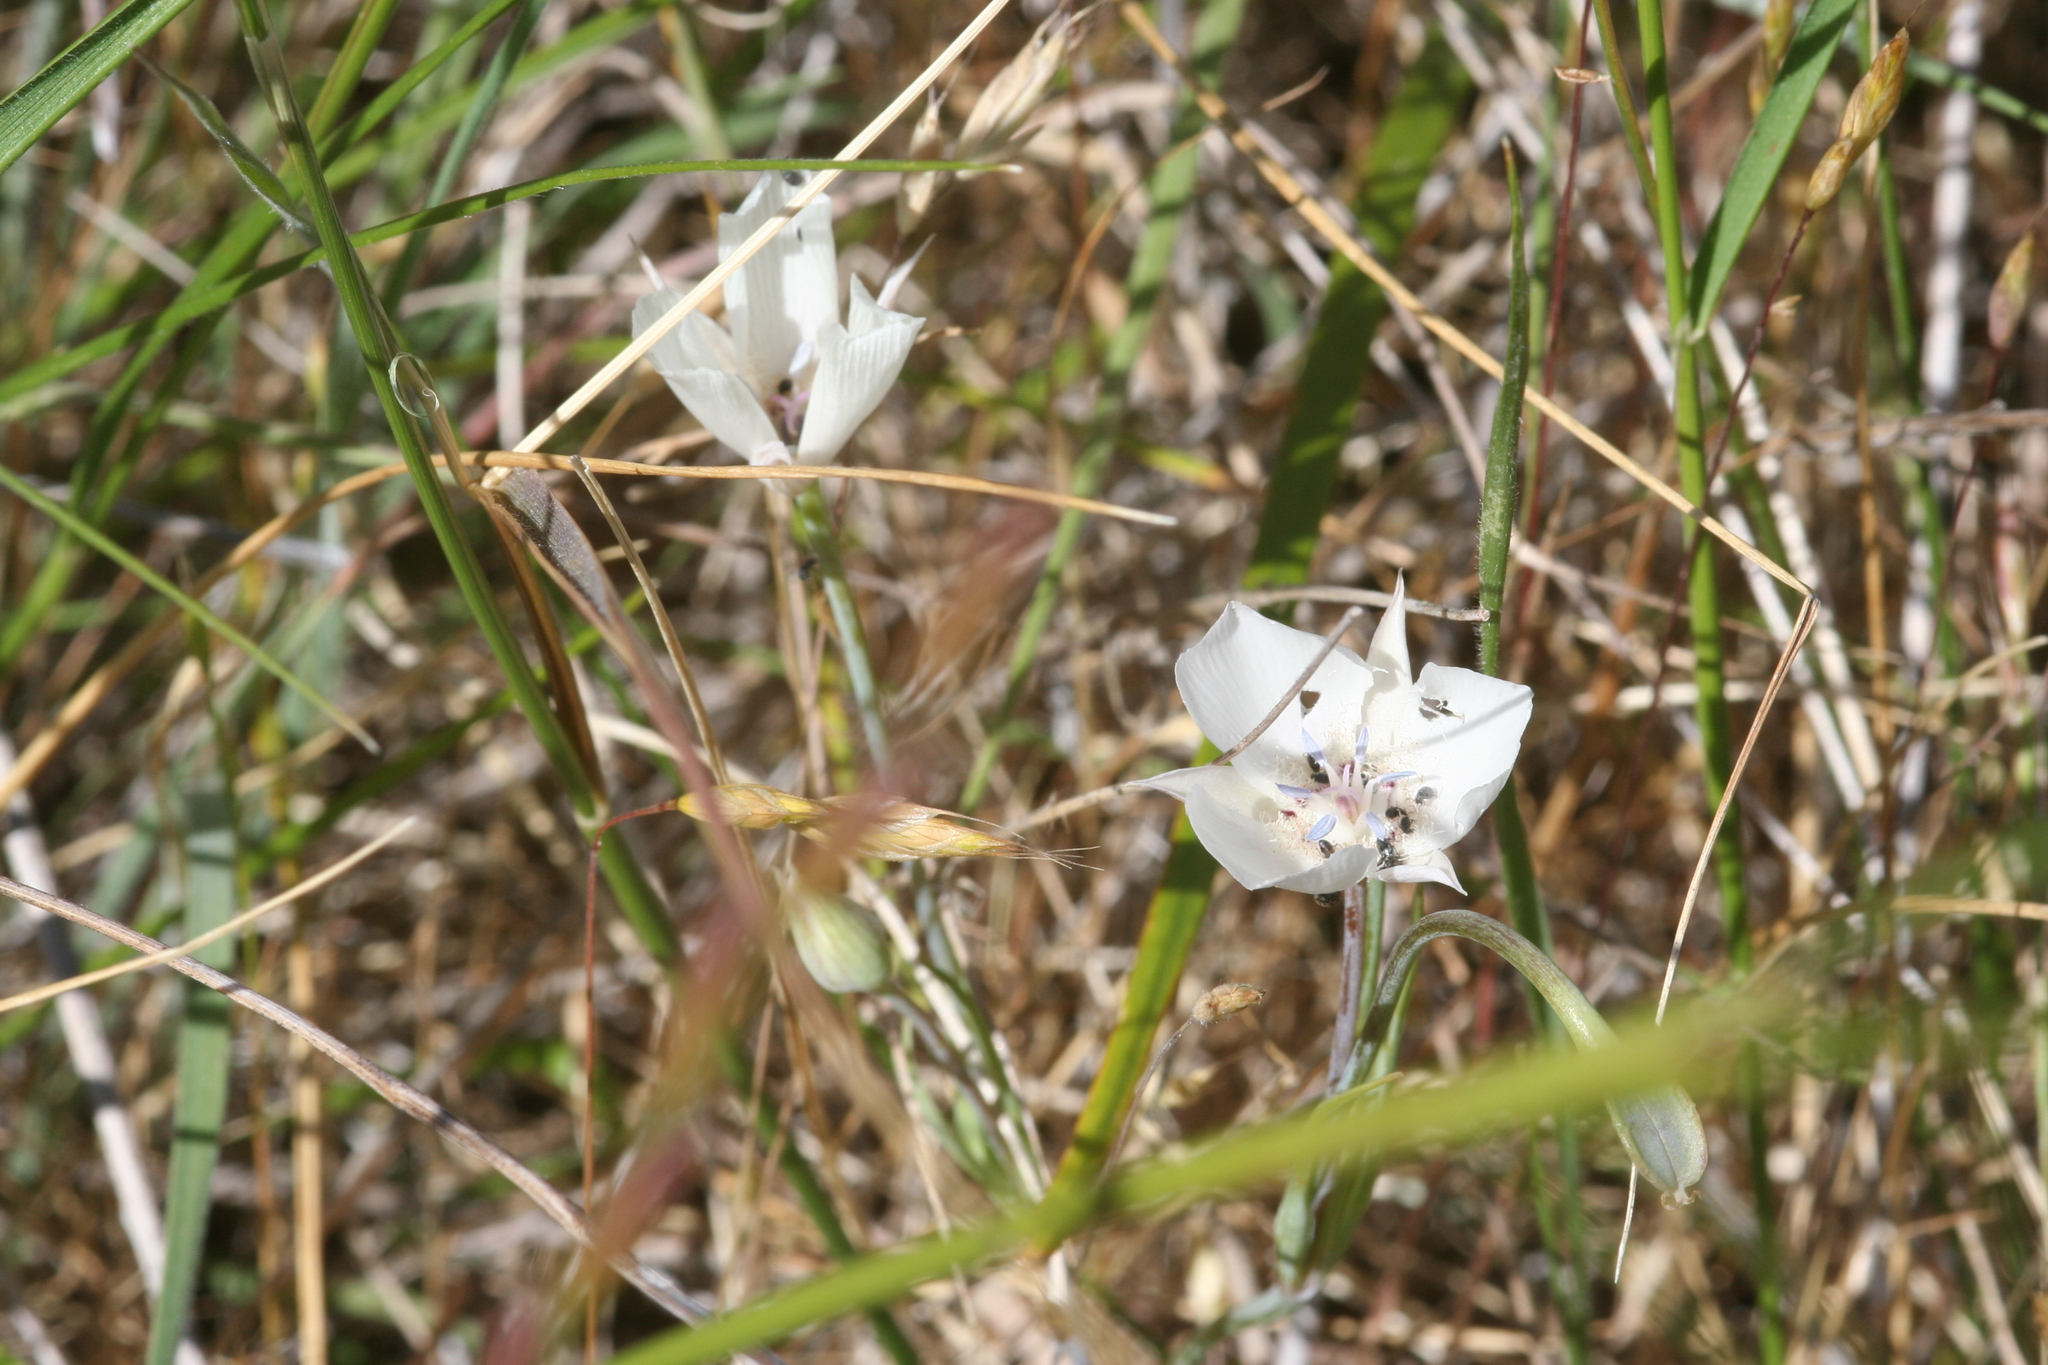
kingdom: Plantae
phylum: Tracheophyta
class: Liliopsida
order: Liliales
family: Liliaceae
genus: Calochortus
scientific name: Calochortus umbellatus
